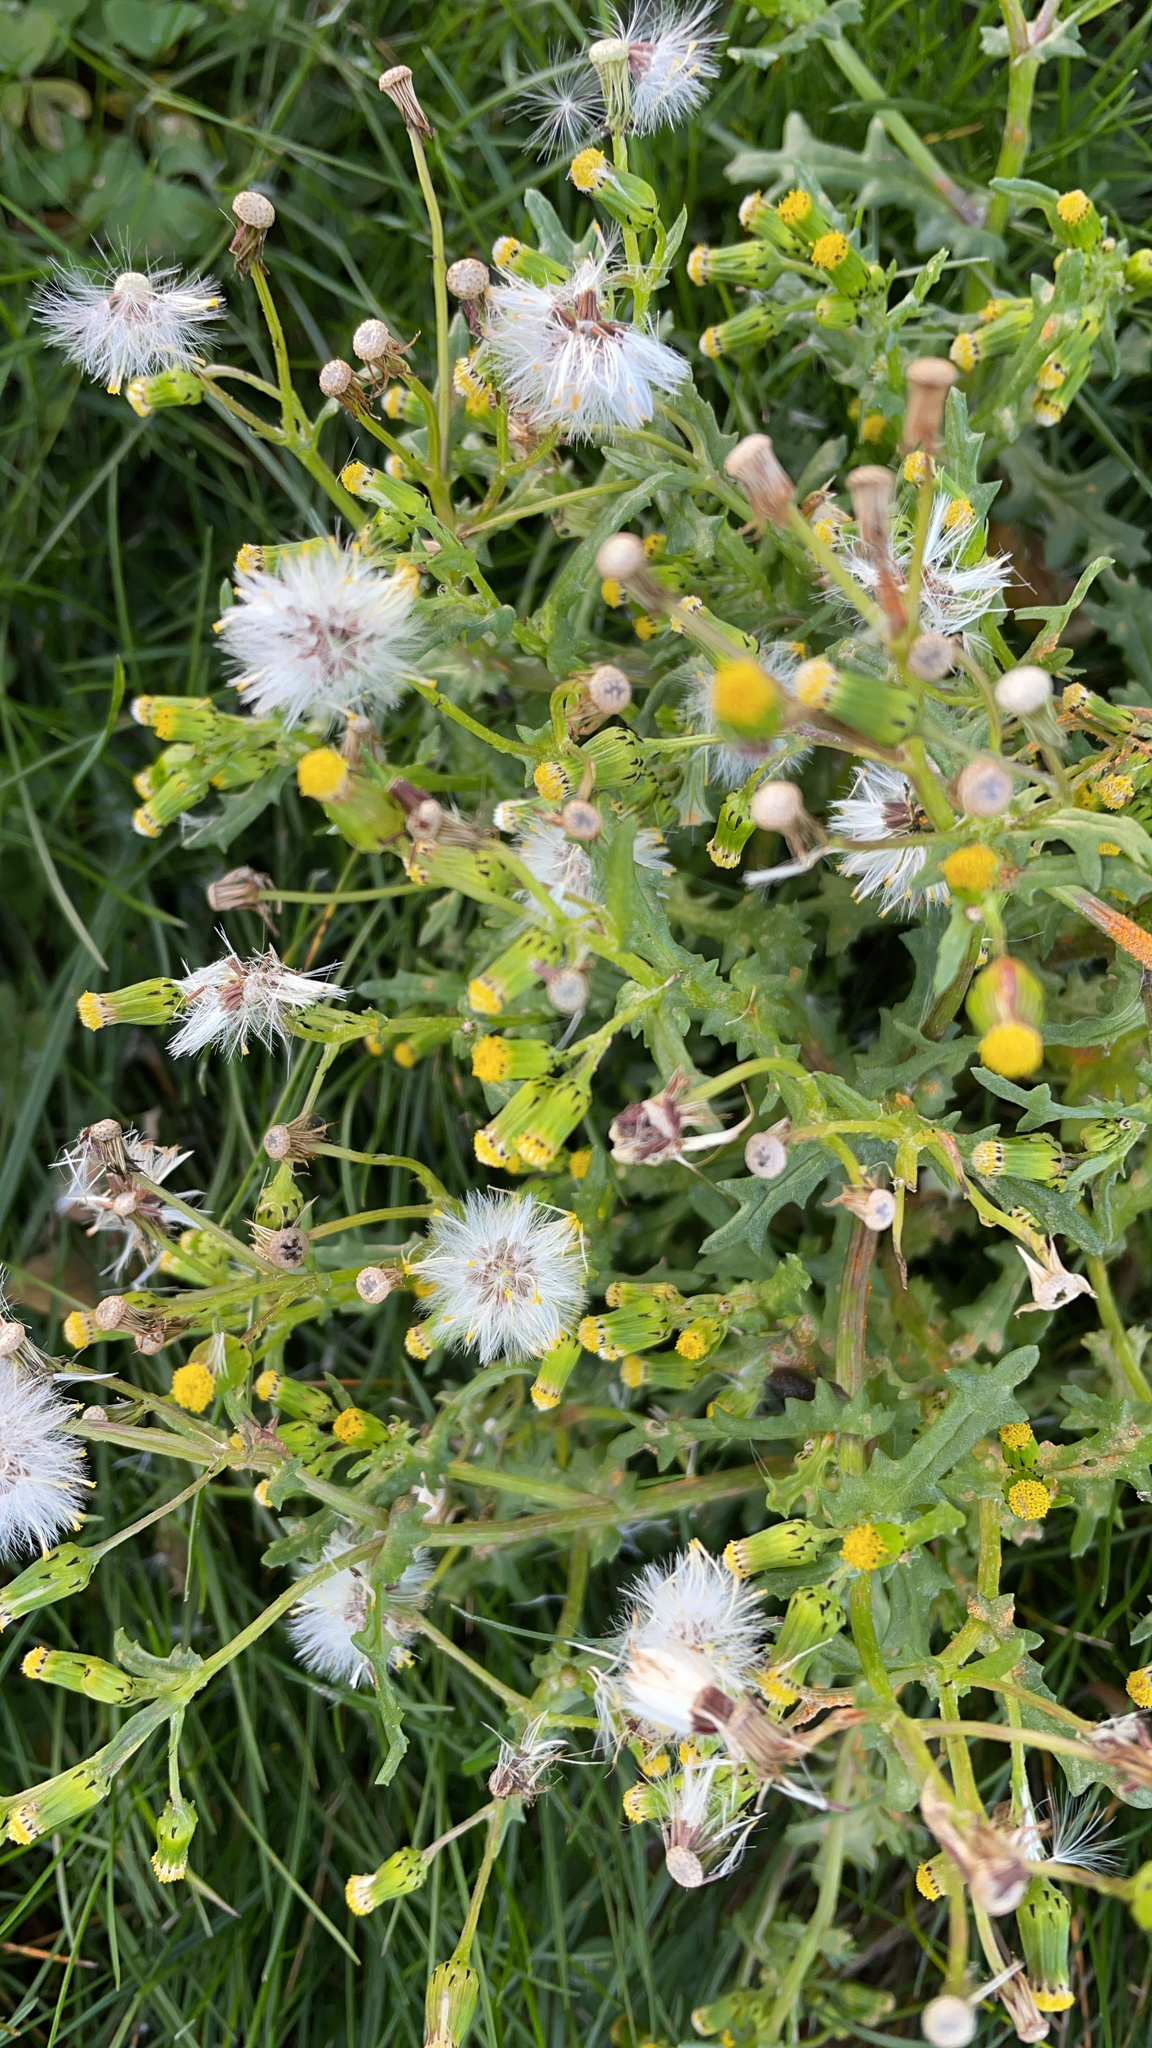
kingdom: Plantae
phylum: Tracheophyta
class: Magnoliopsida
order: Asterales
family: Asteraceae
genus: Senecio
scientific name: Senecio vulgaris
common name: Old-man-in-the-spring
